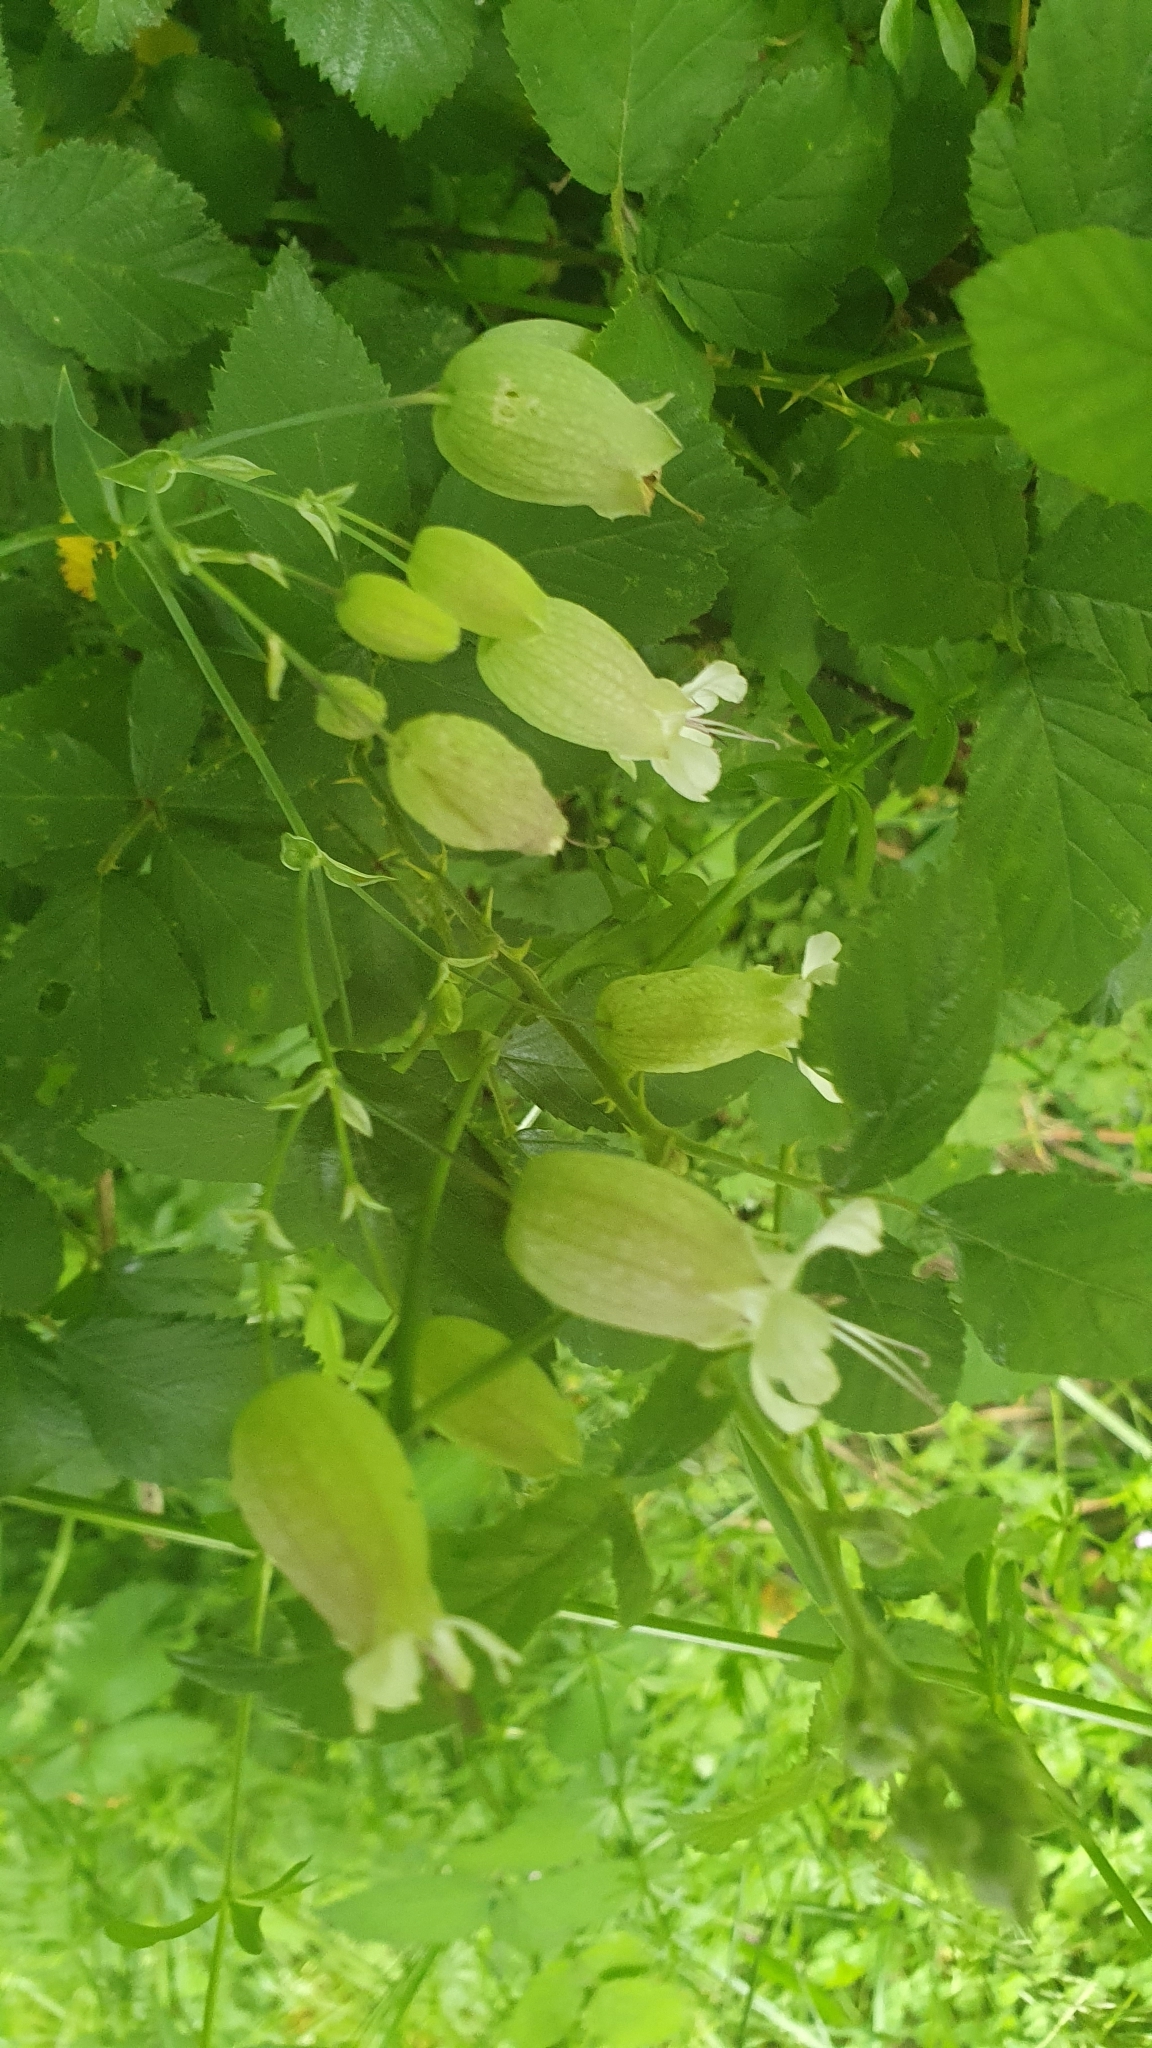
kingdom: Plantae
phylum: Tracheophyta
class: Magnoliopsida
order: Caryophyllales
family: Caryophyllaceae
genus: Silene
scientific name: Silene vulgaris
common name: Bladder campion
